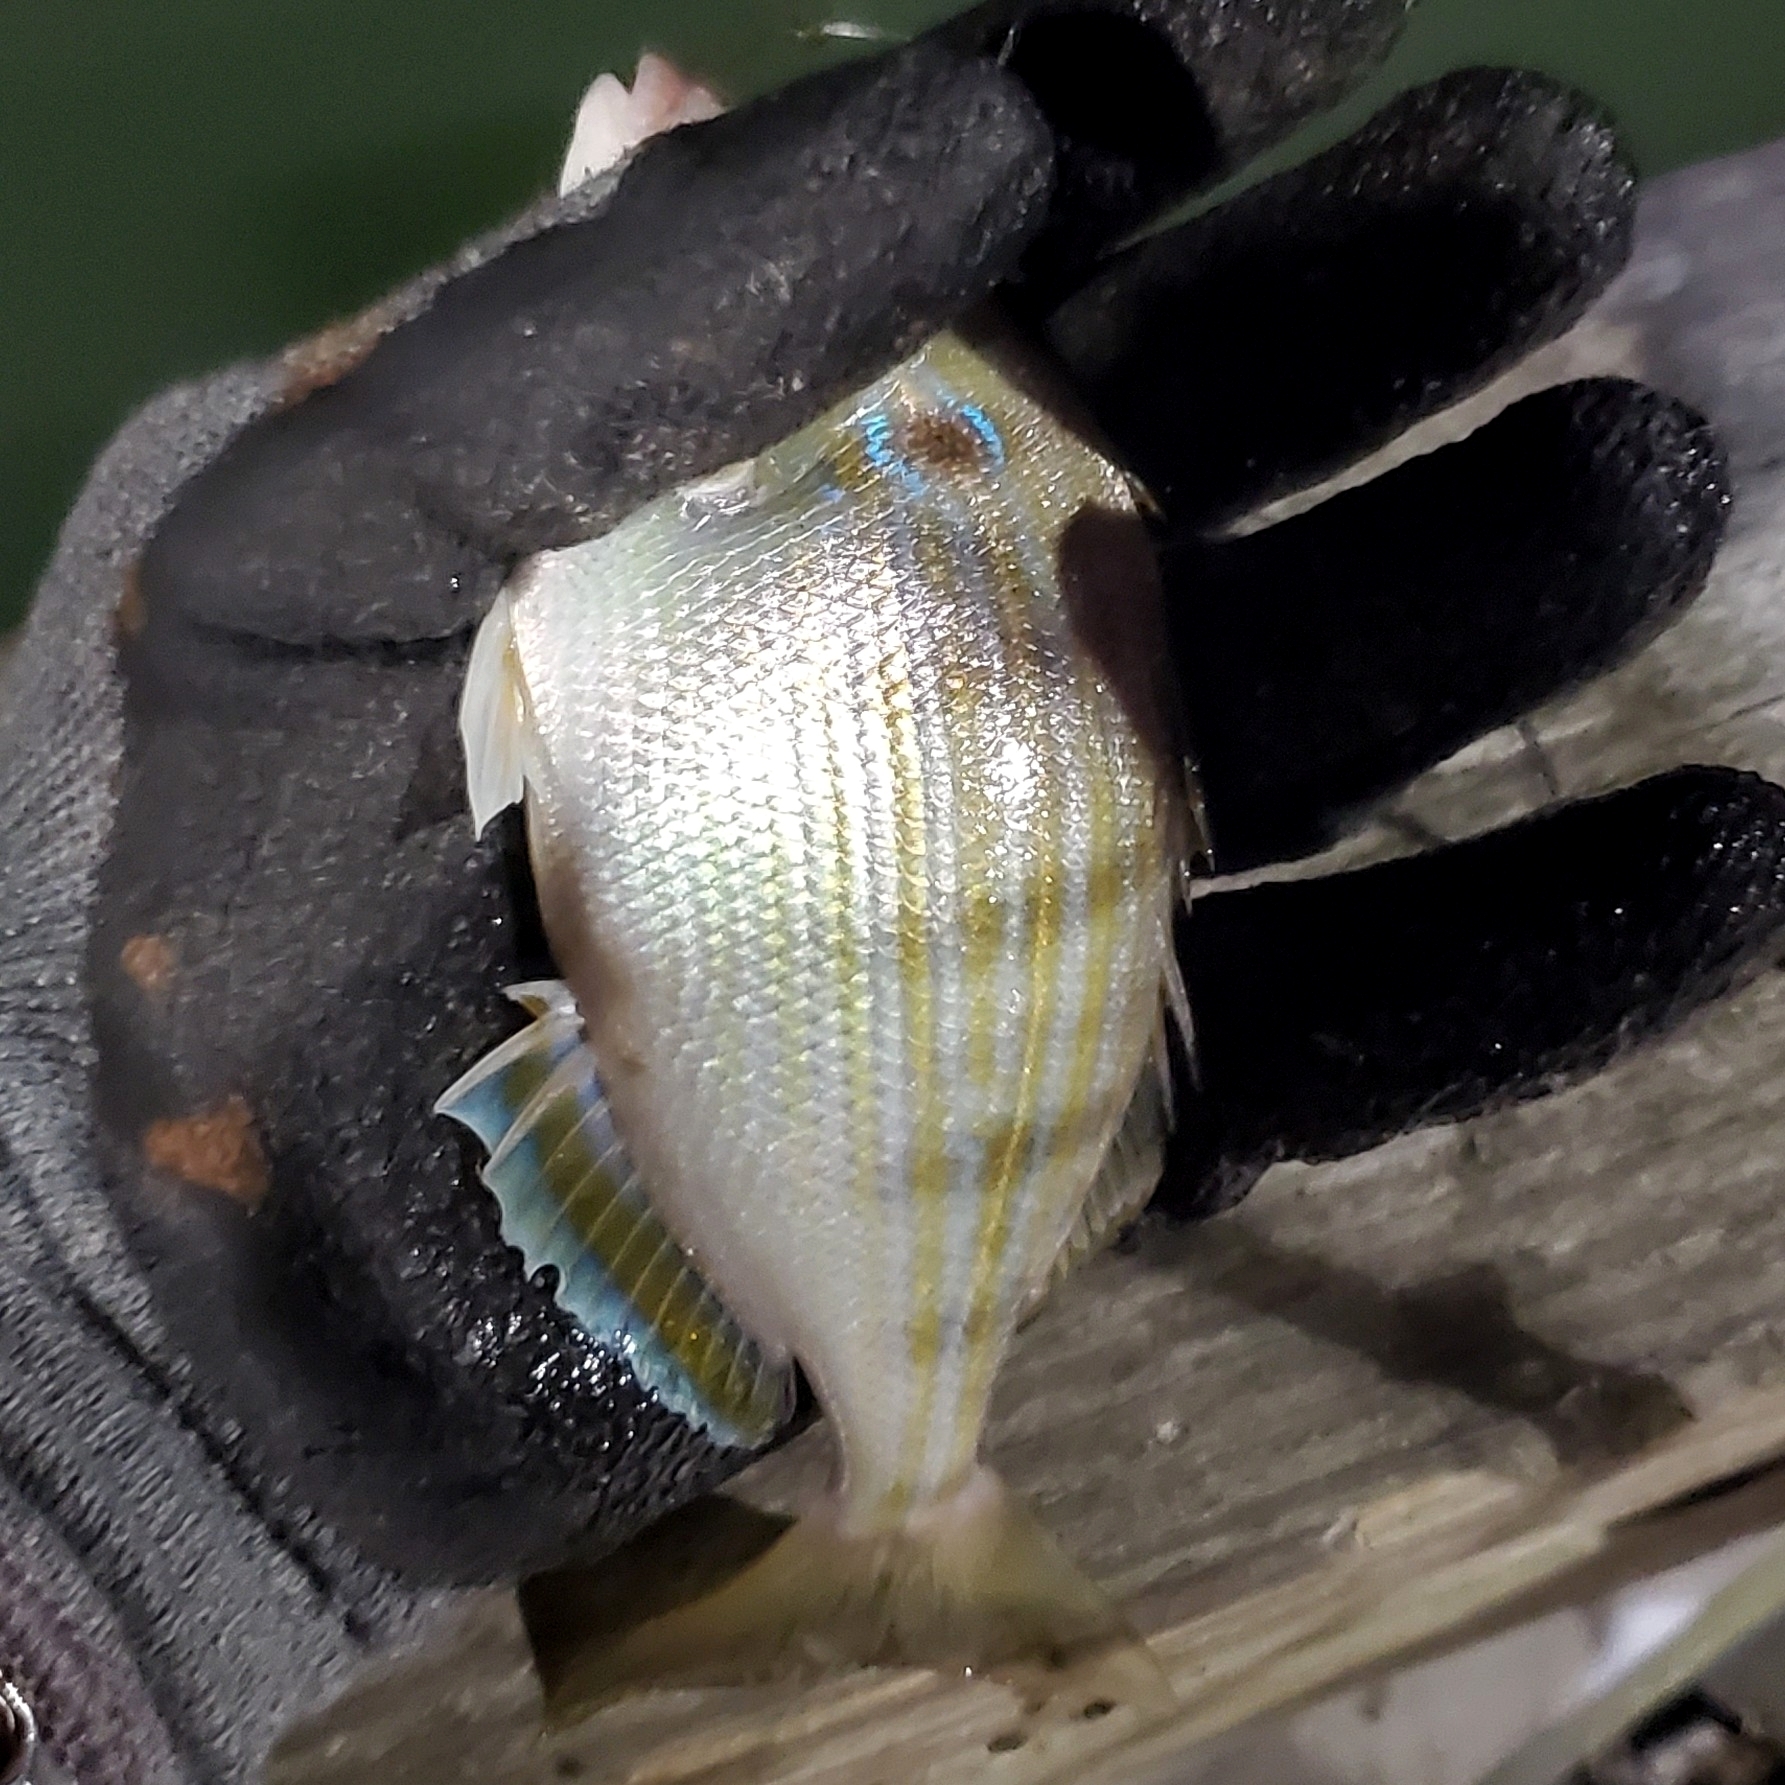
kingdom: Animalia
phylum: Chordata
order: Perciformes
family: Sparidae
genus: Lagodon
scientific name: Lagodon rhomboides
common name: Pinfish
